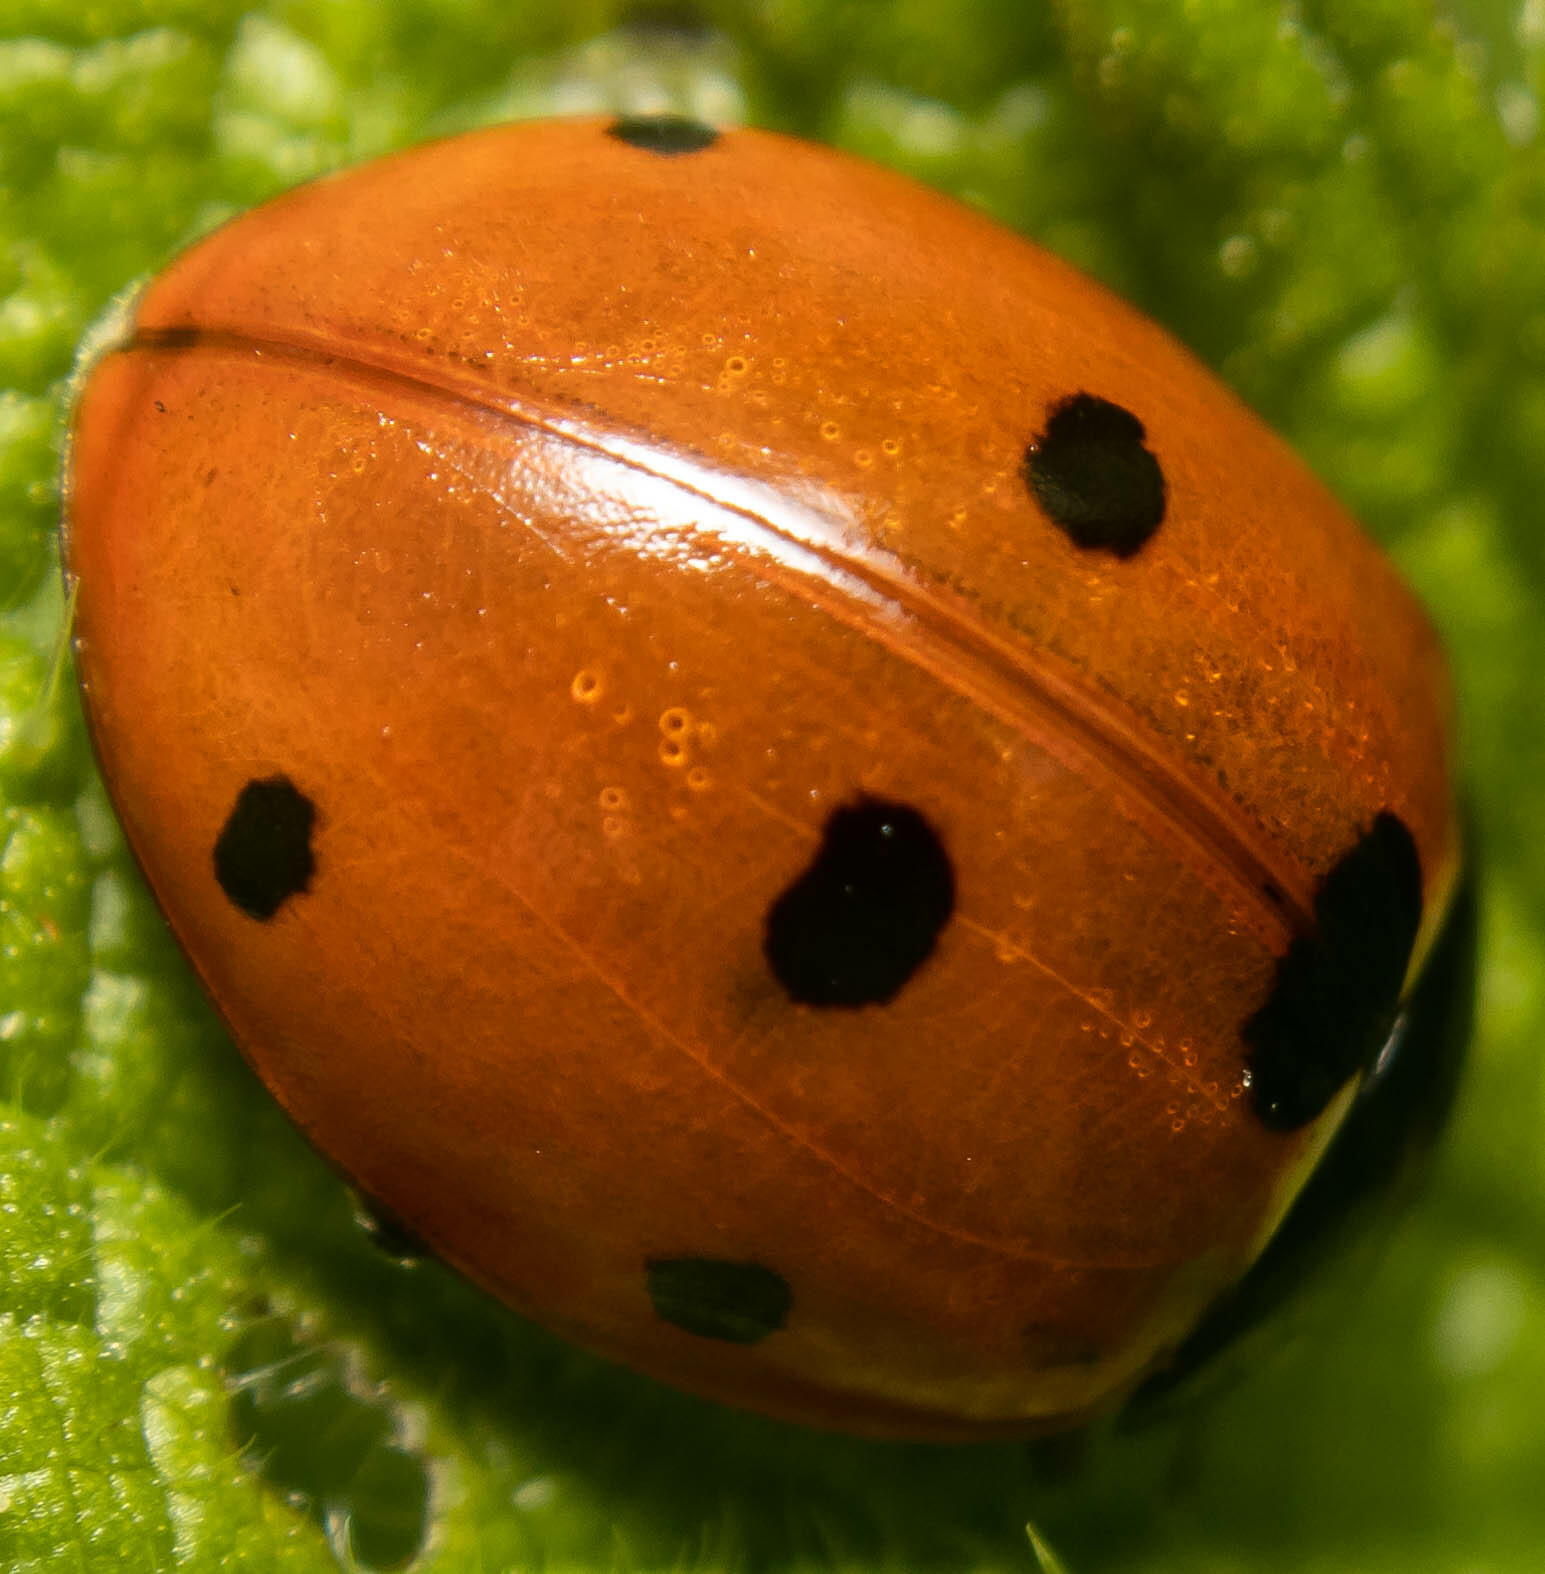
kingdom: Animalia
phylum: Arthropoda
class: Insecta
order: Coleoptera
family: Coccinellidae
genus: Coccinella
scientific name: Coccinella septempunctata
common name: Sevenspotted lady beetle
